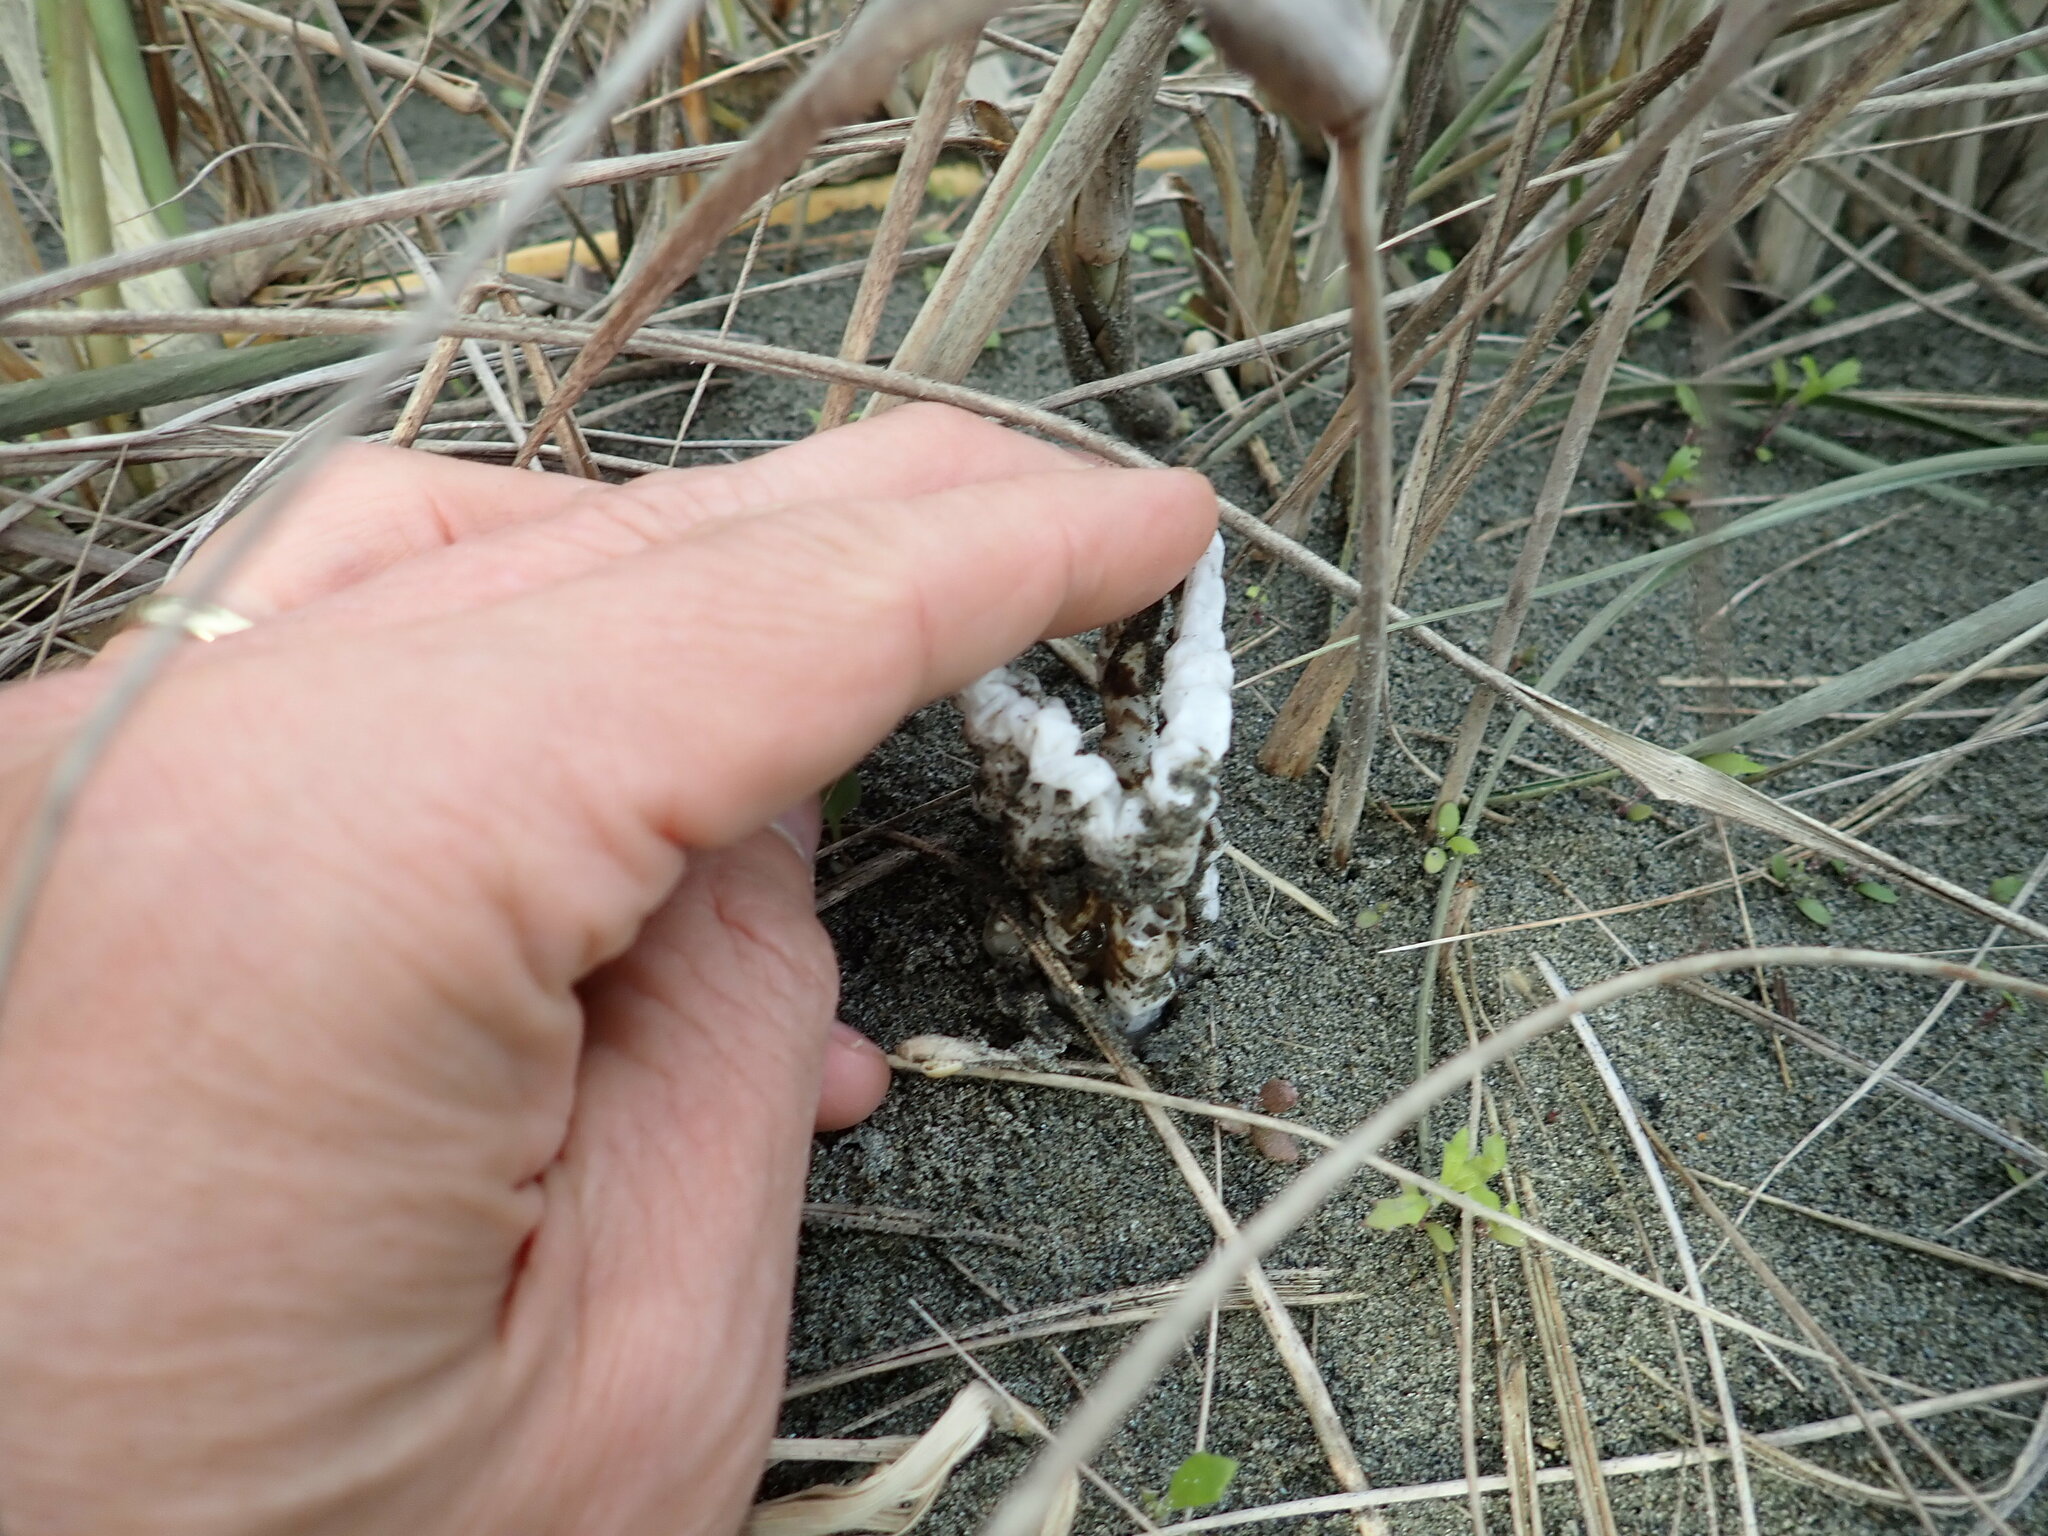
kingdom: Fungi
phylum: Basidiomycota
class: Agaricomycetes
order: Phallales
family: Phallaceae
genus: Ileodictyon
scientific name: Ileodictyon cibarium
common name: Basket fungus
